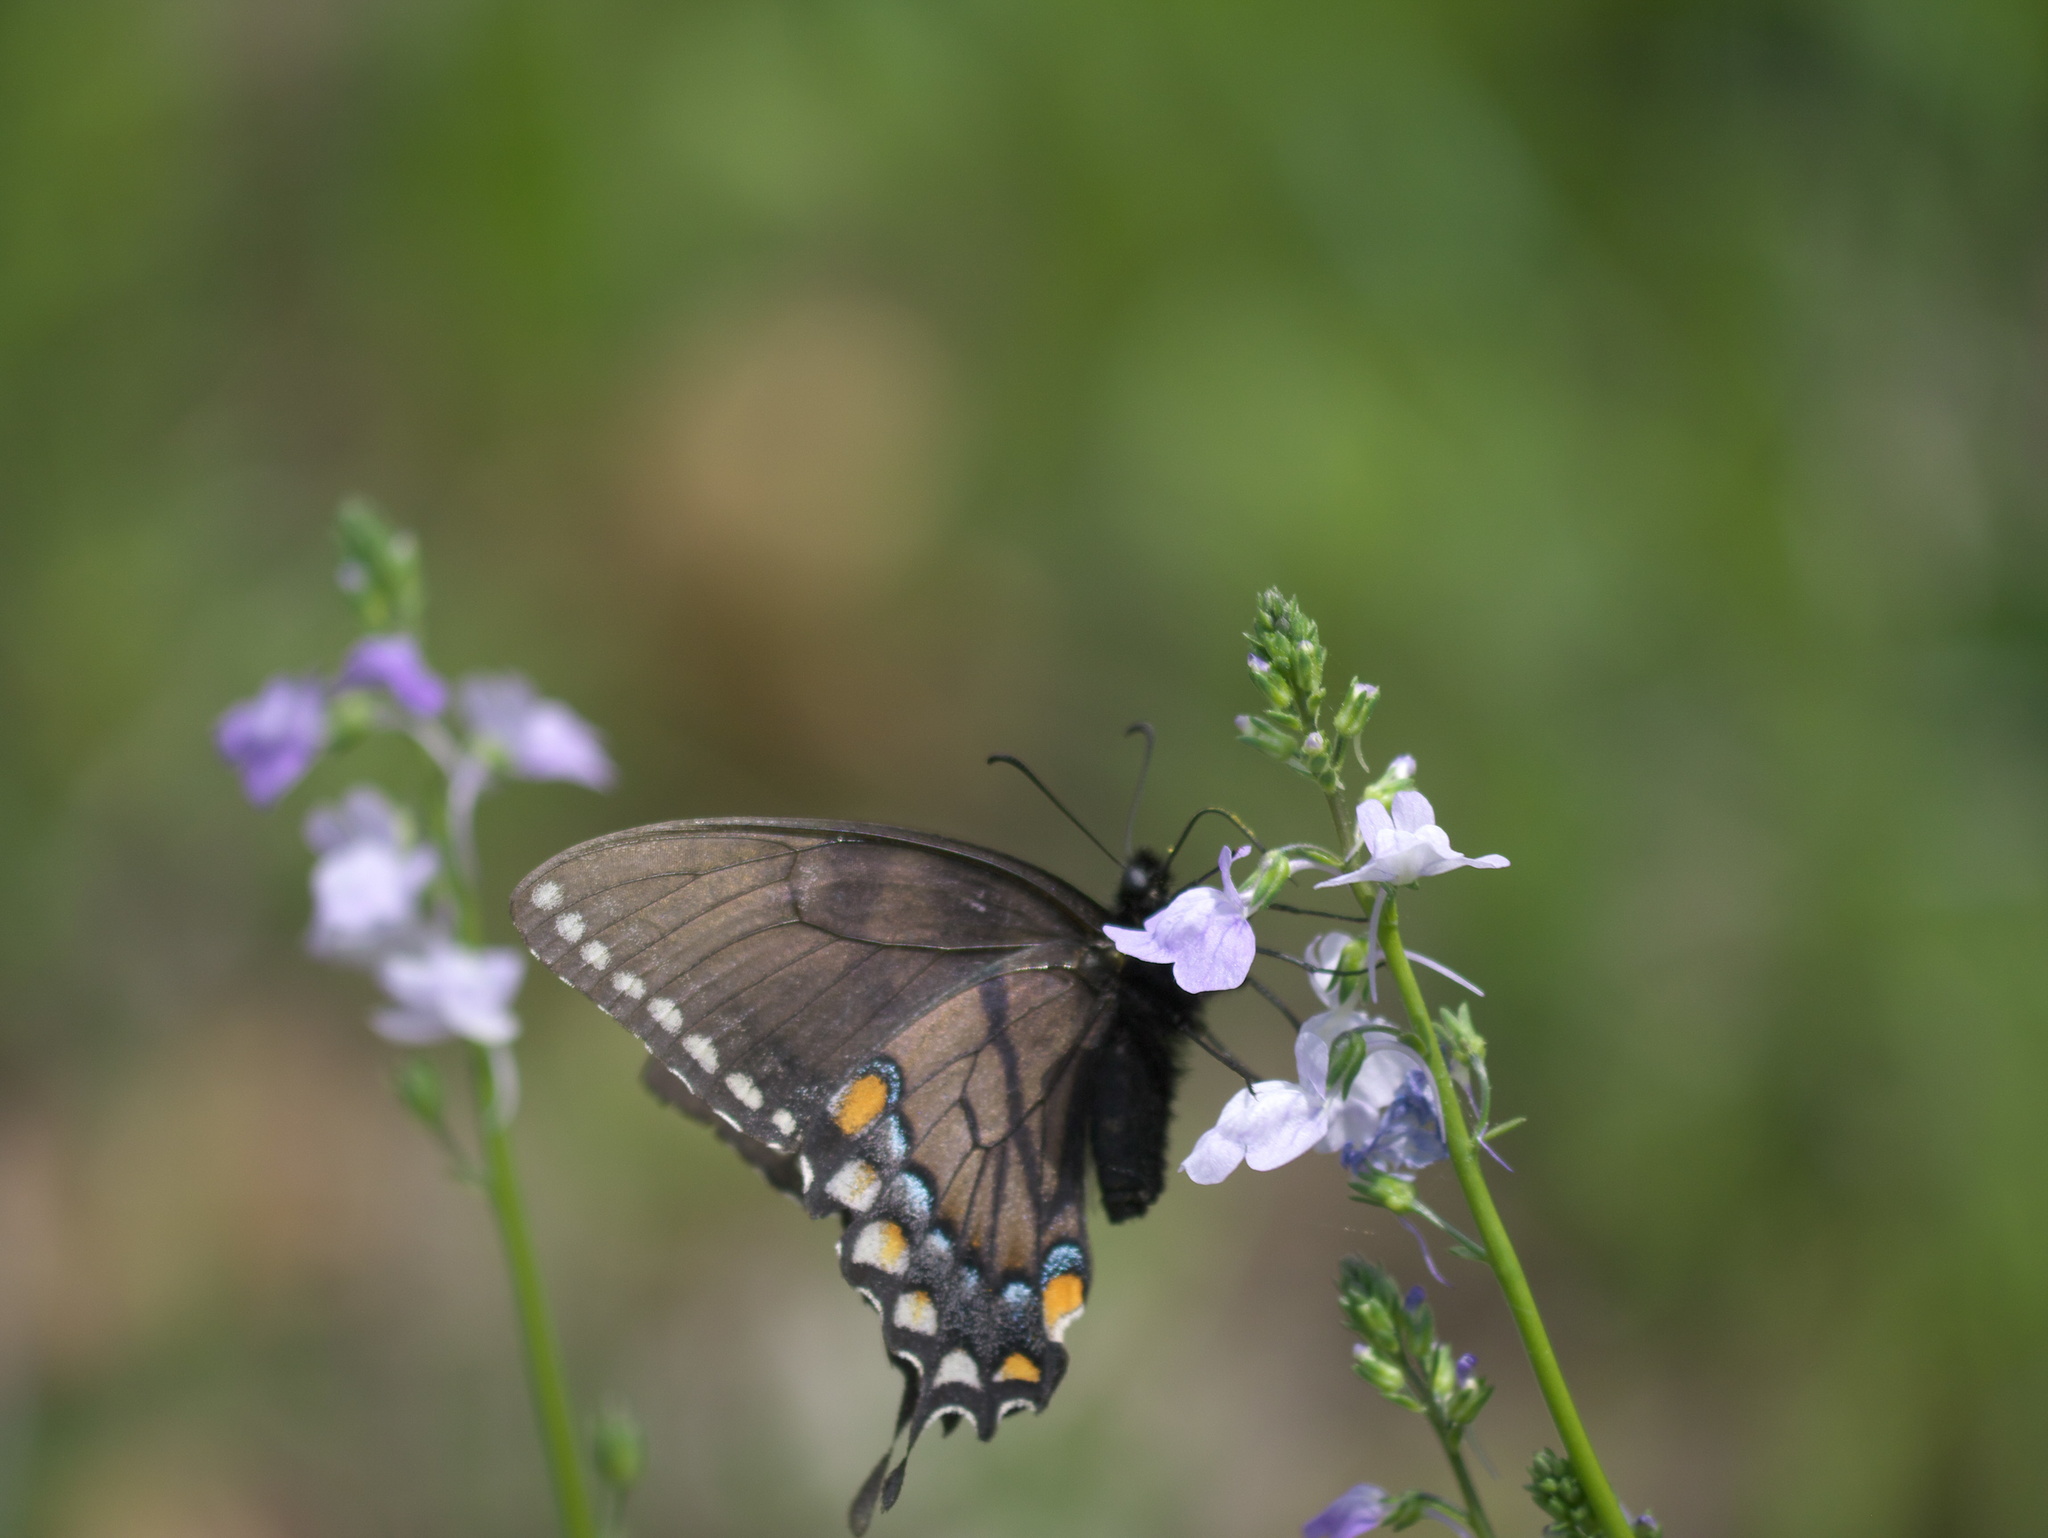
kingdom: Animalia
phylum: Arthropoda
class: Insecta
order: Lepidoptera
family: Papilionidae
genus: Papilio
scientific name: Papilio glaucus
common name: Tiger swallowtail
